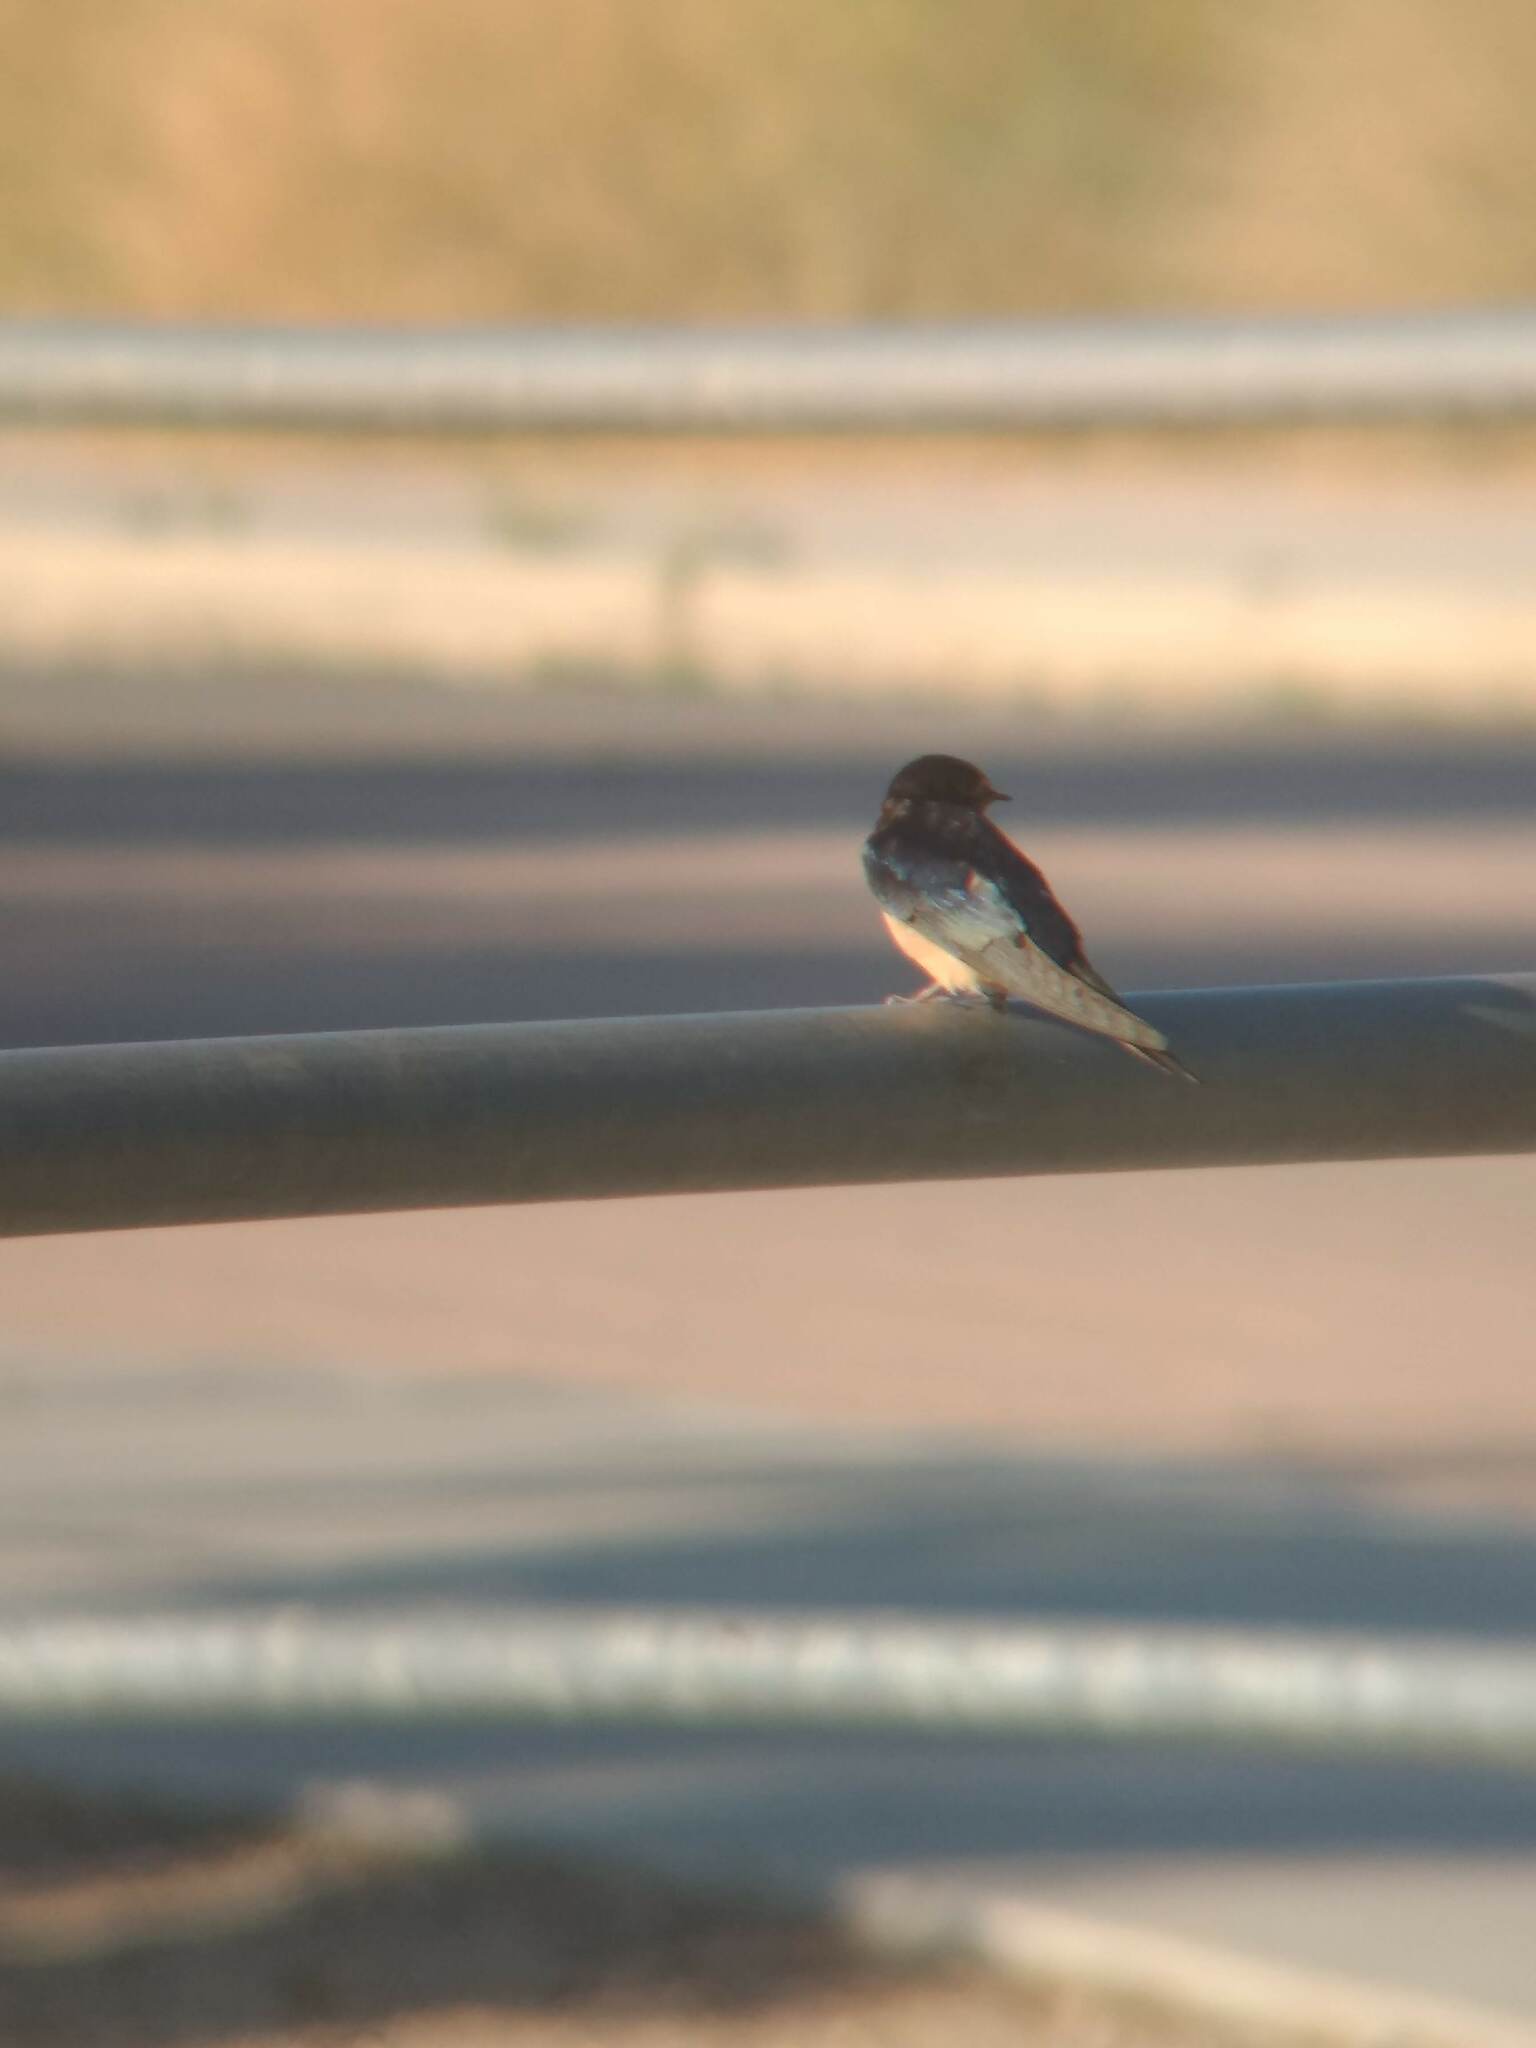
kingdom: Animalia
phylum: Chordata
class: Aves
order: Passeriformes
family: Hirundinidae
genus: Hirundo
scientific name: Hirundo rustica
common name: Barn swallow
